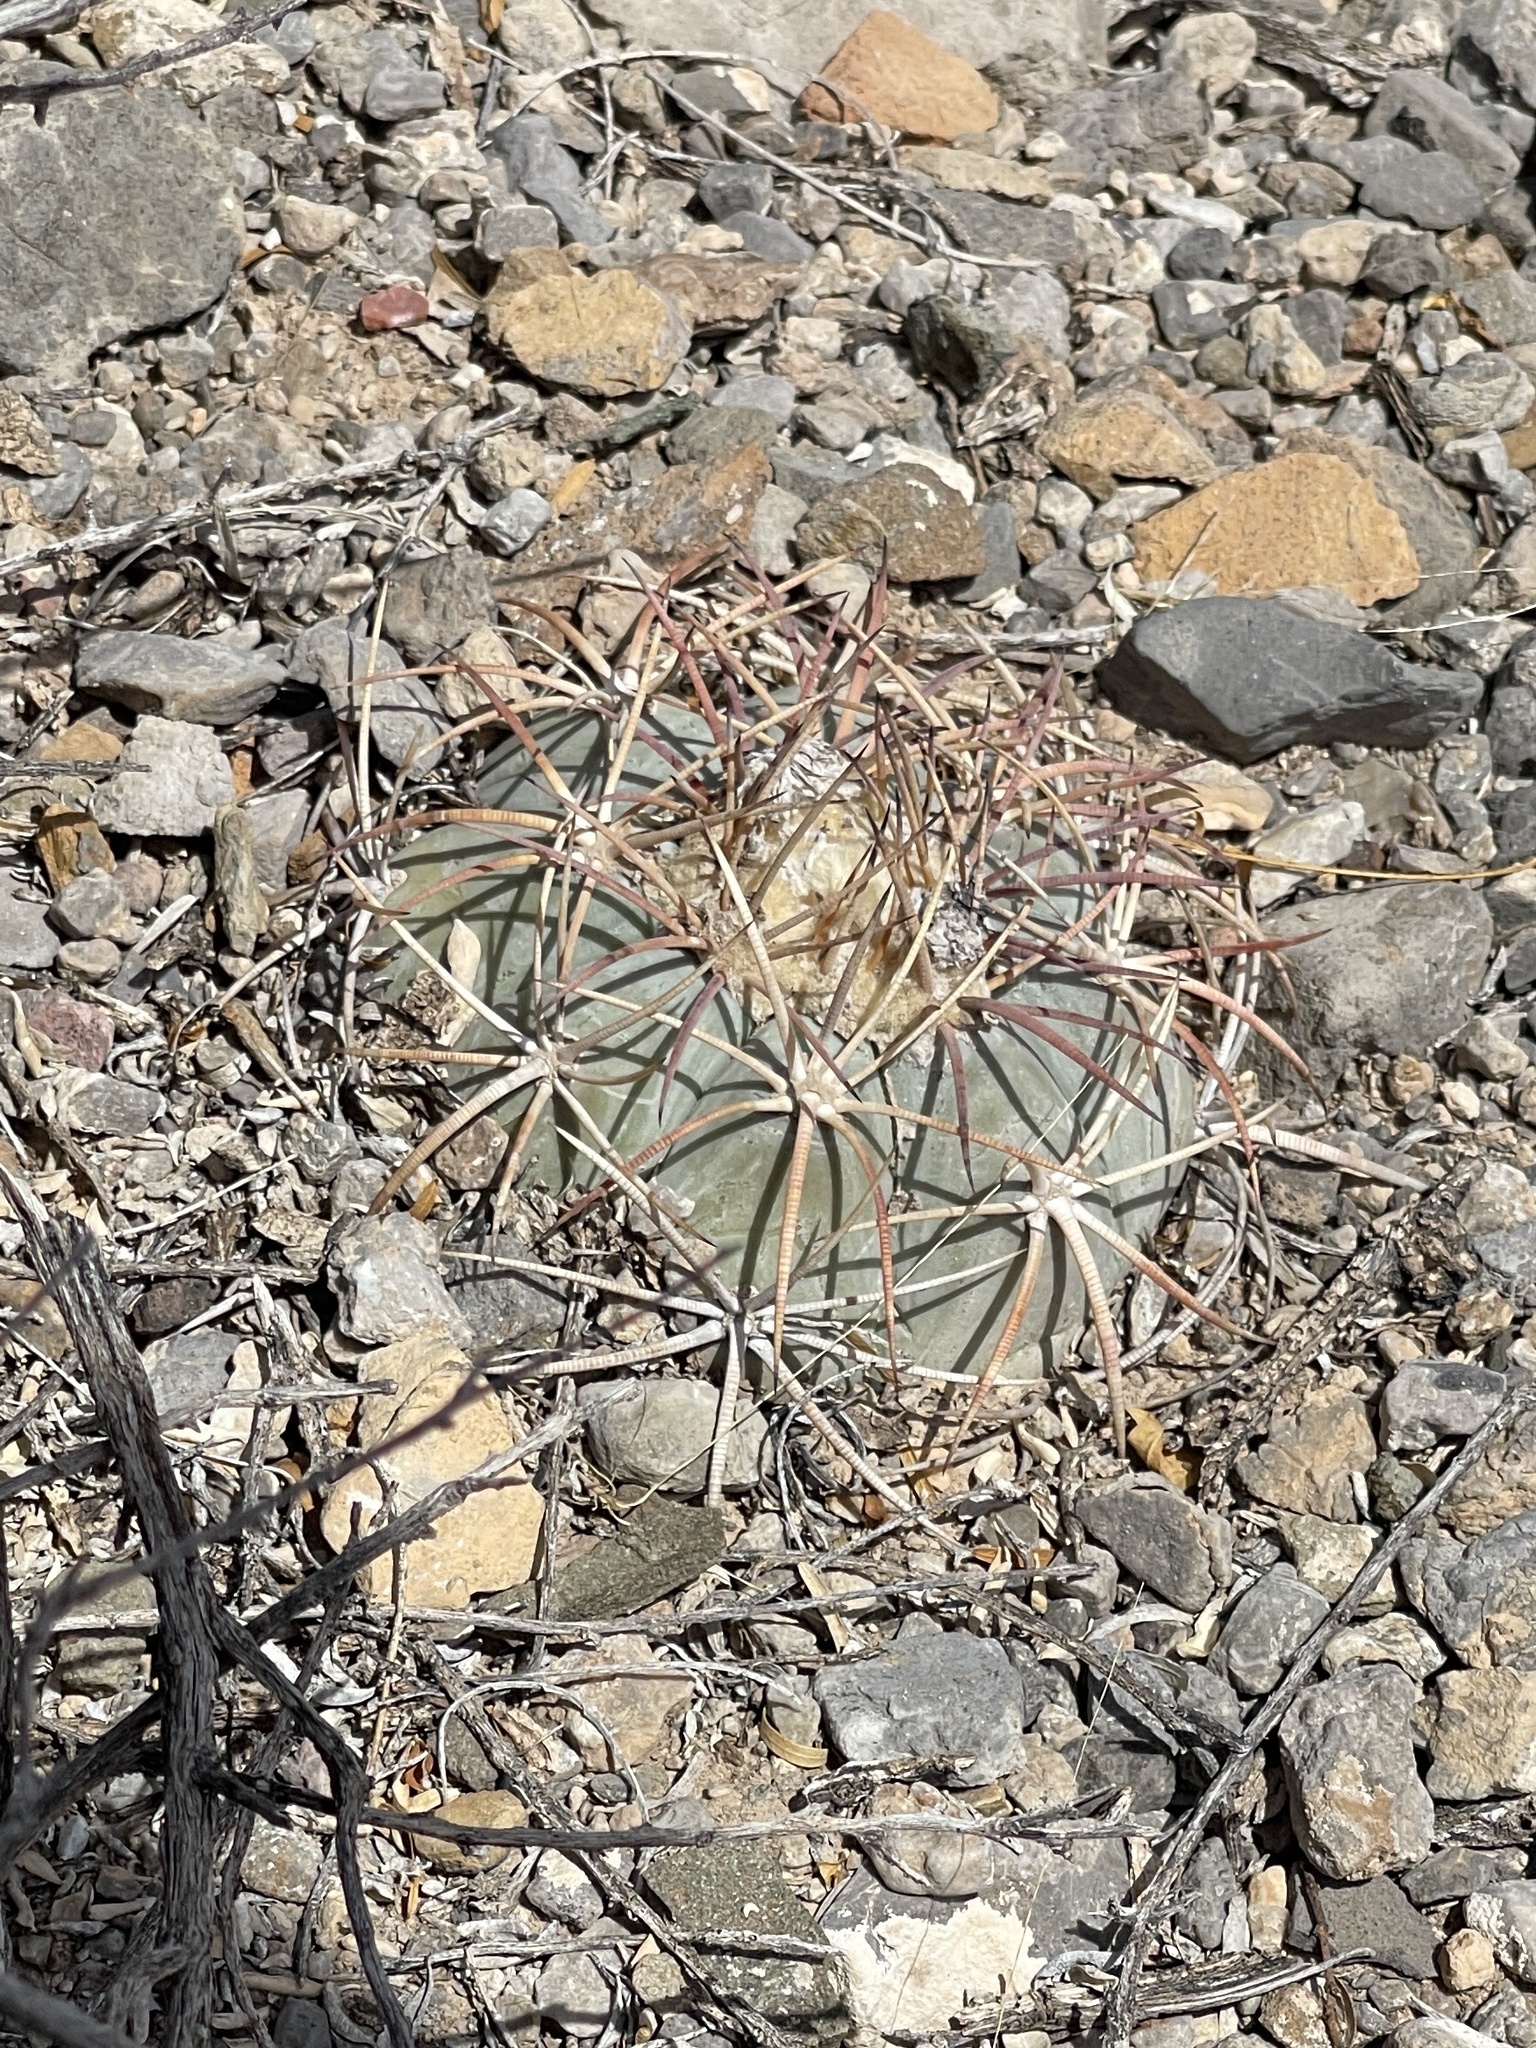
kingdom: Plantae
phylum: Tracheophyta
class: Magnoliopsida
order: Caryophyllales
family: Cactaceae
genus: Echinocactus
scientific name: Echinocactus horizonthalonius
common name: Devilshead
